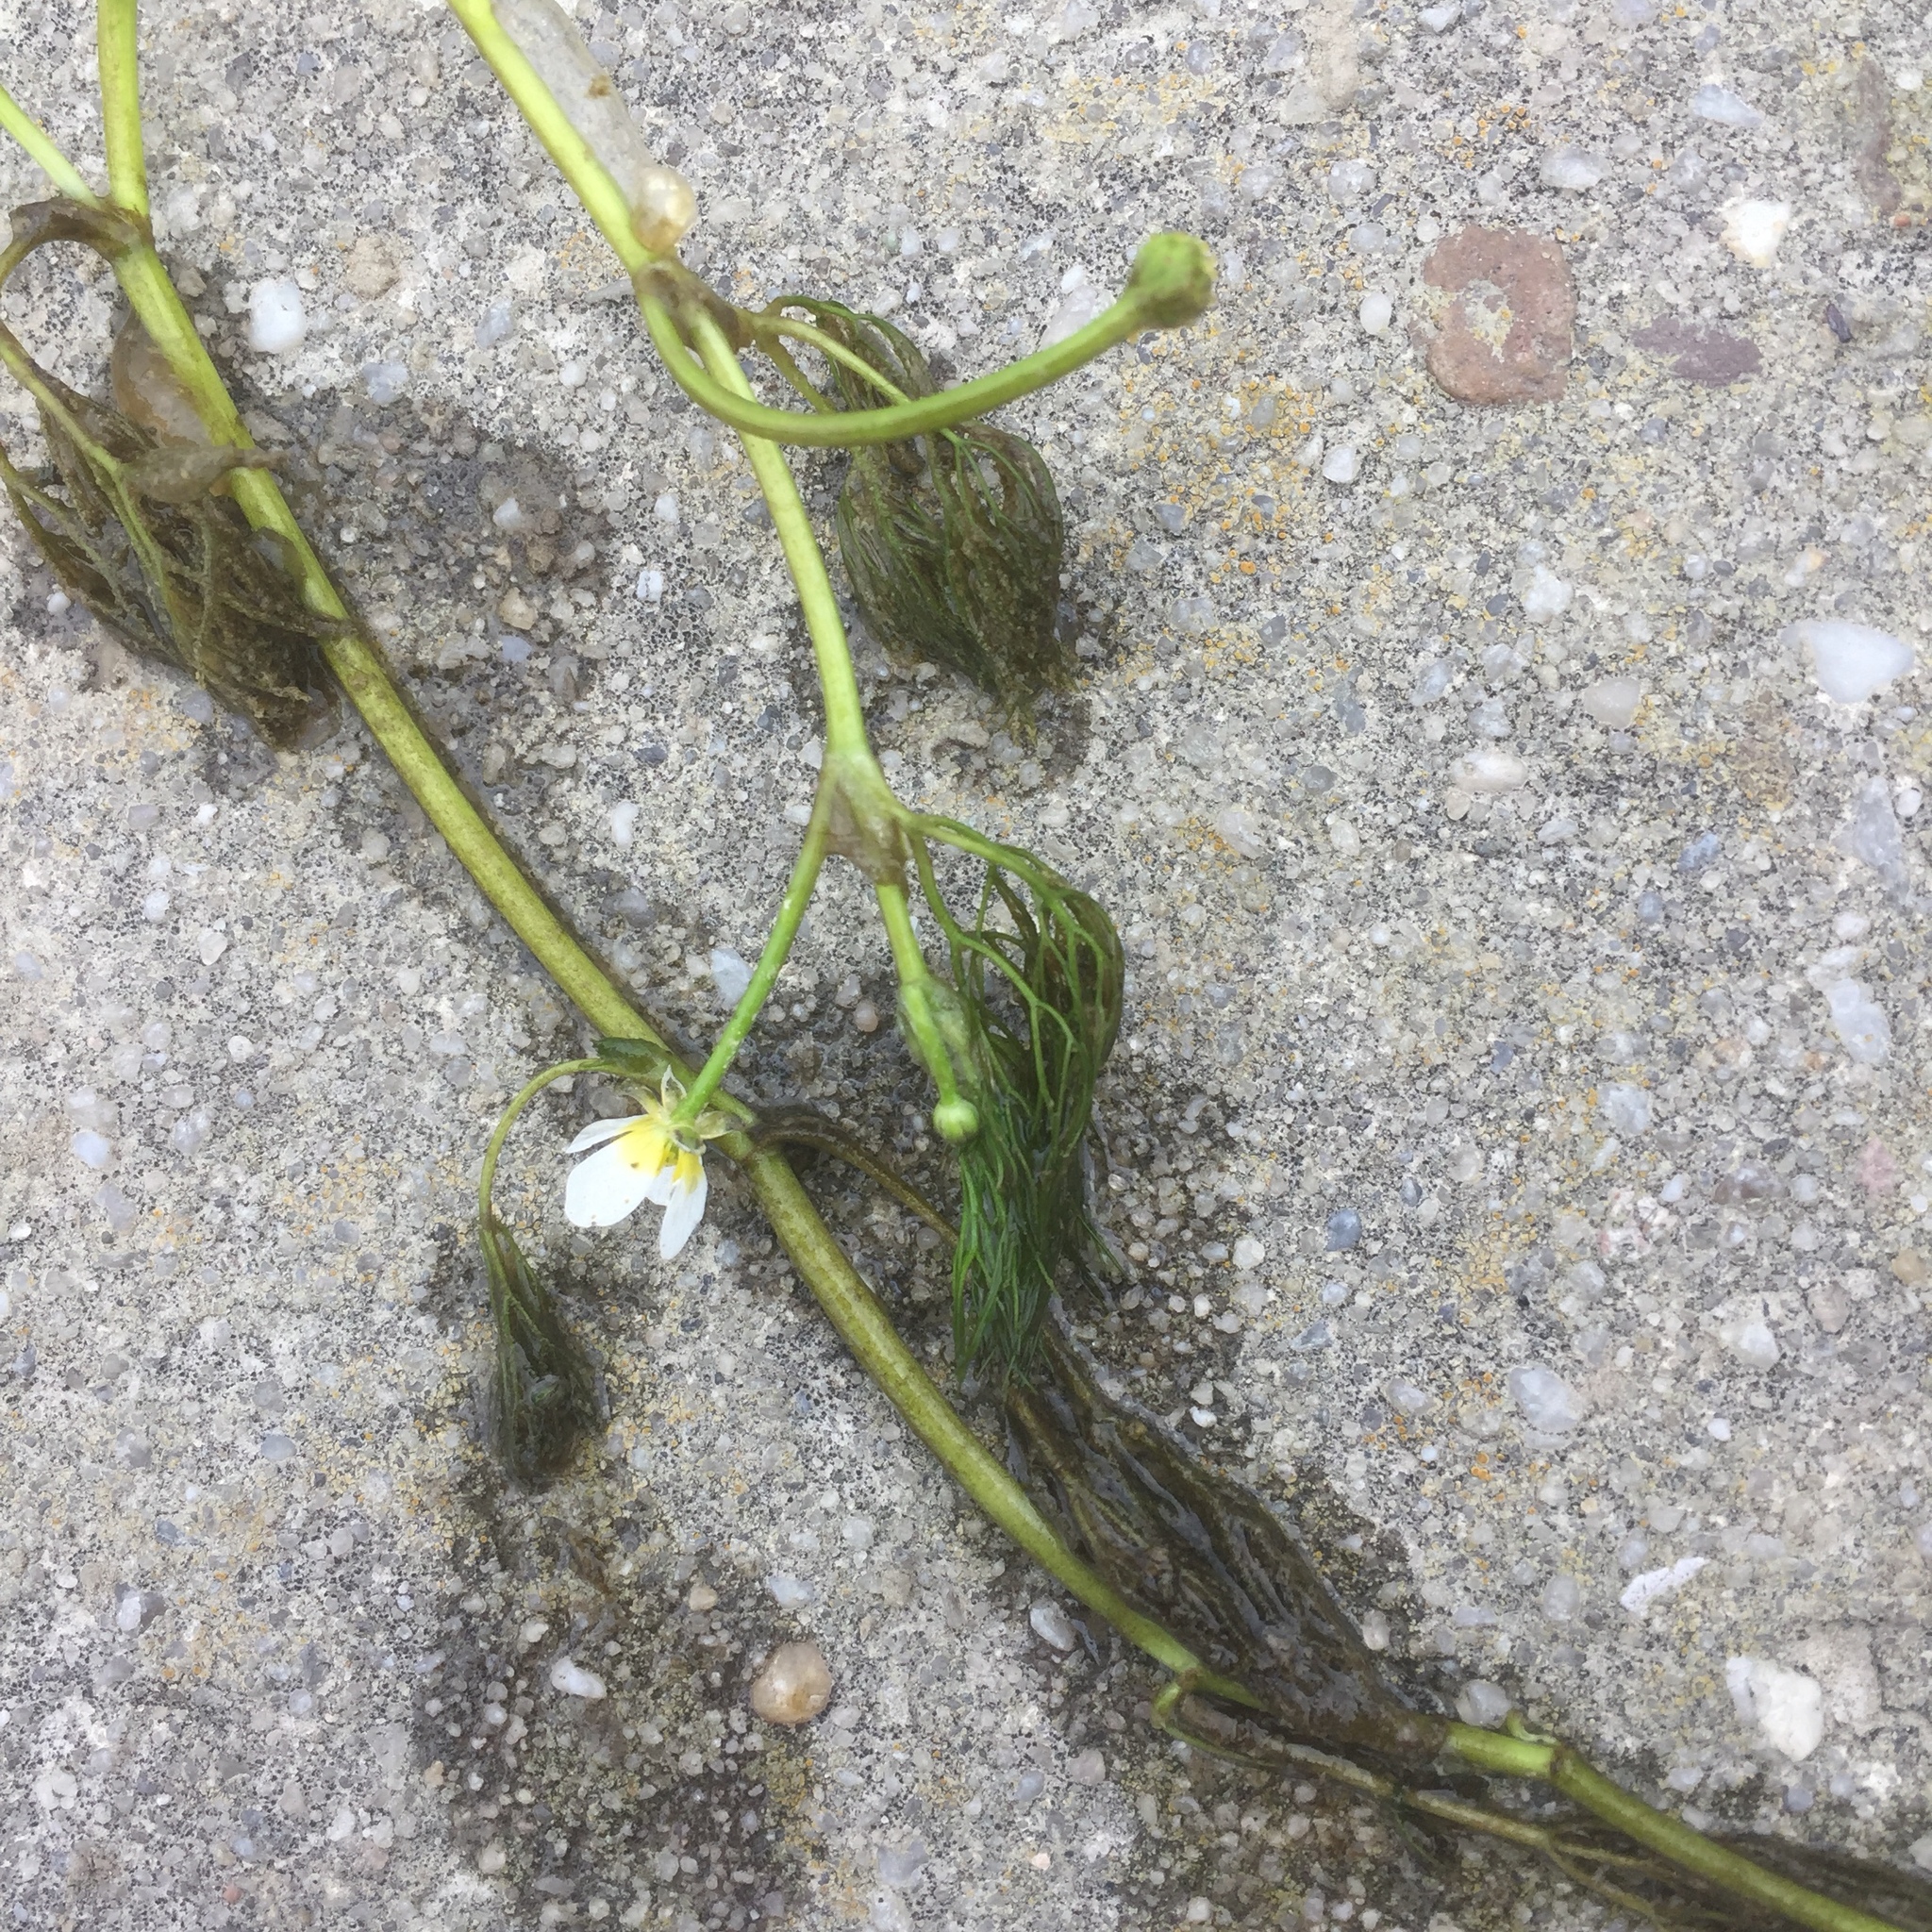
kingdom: Plantae
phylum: Tracheophyta
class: Magnoliopsida
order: Ranunculales
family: Ranunculaceae
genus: Ranunculus
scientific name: Ranunculus aquatilis
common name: Common water-crowfoot
